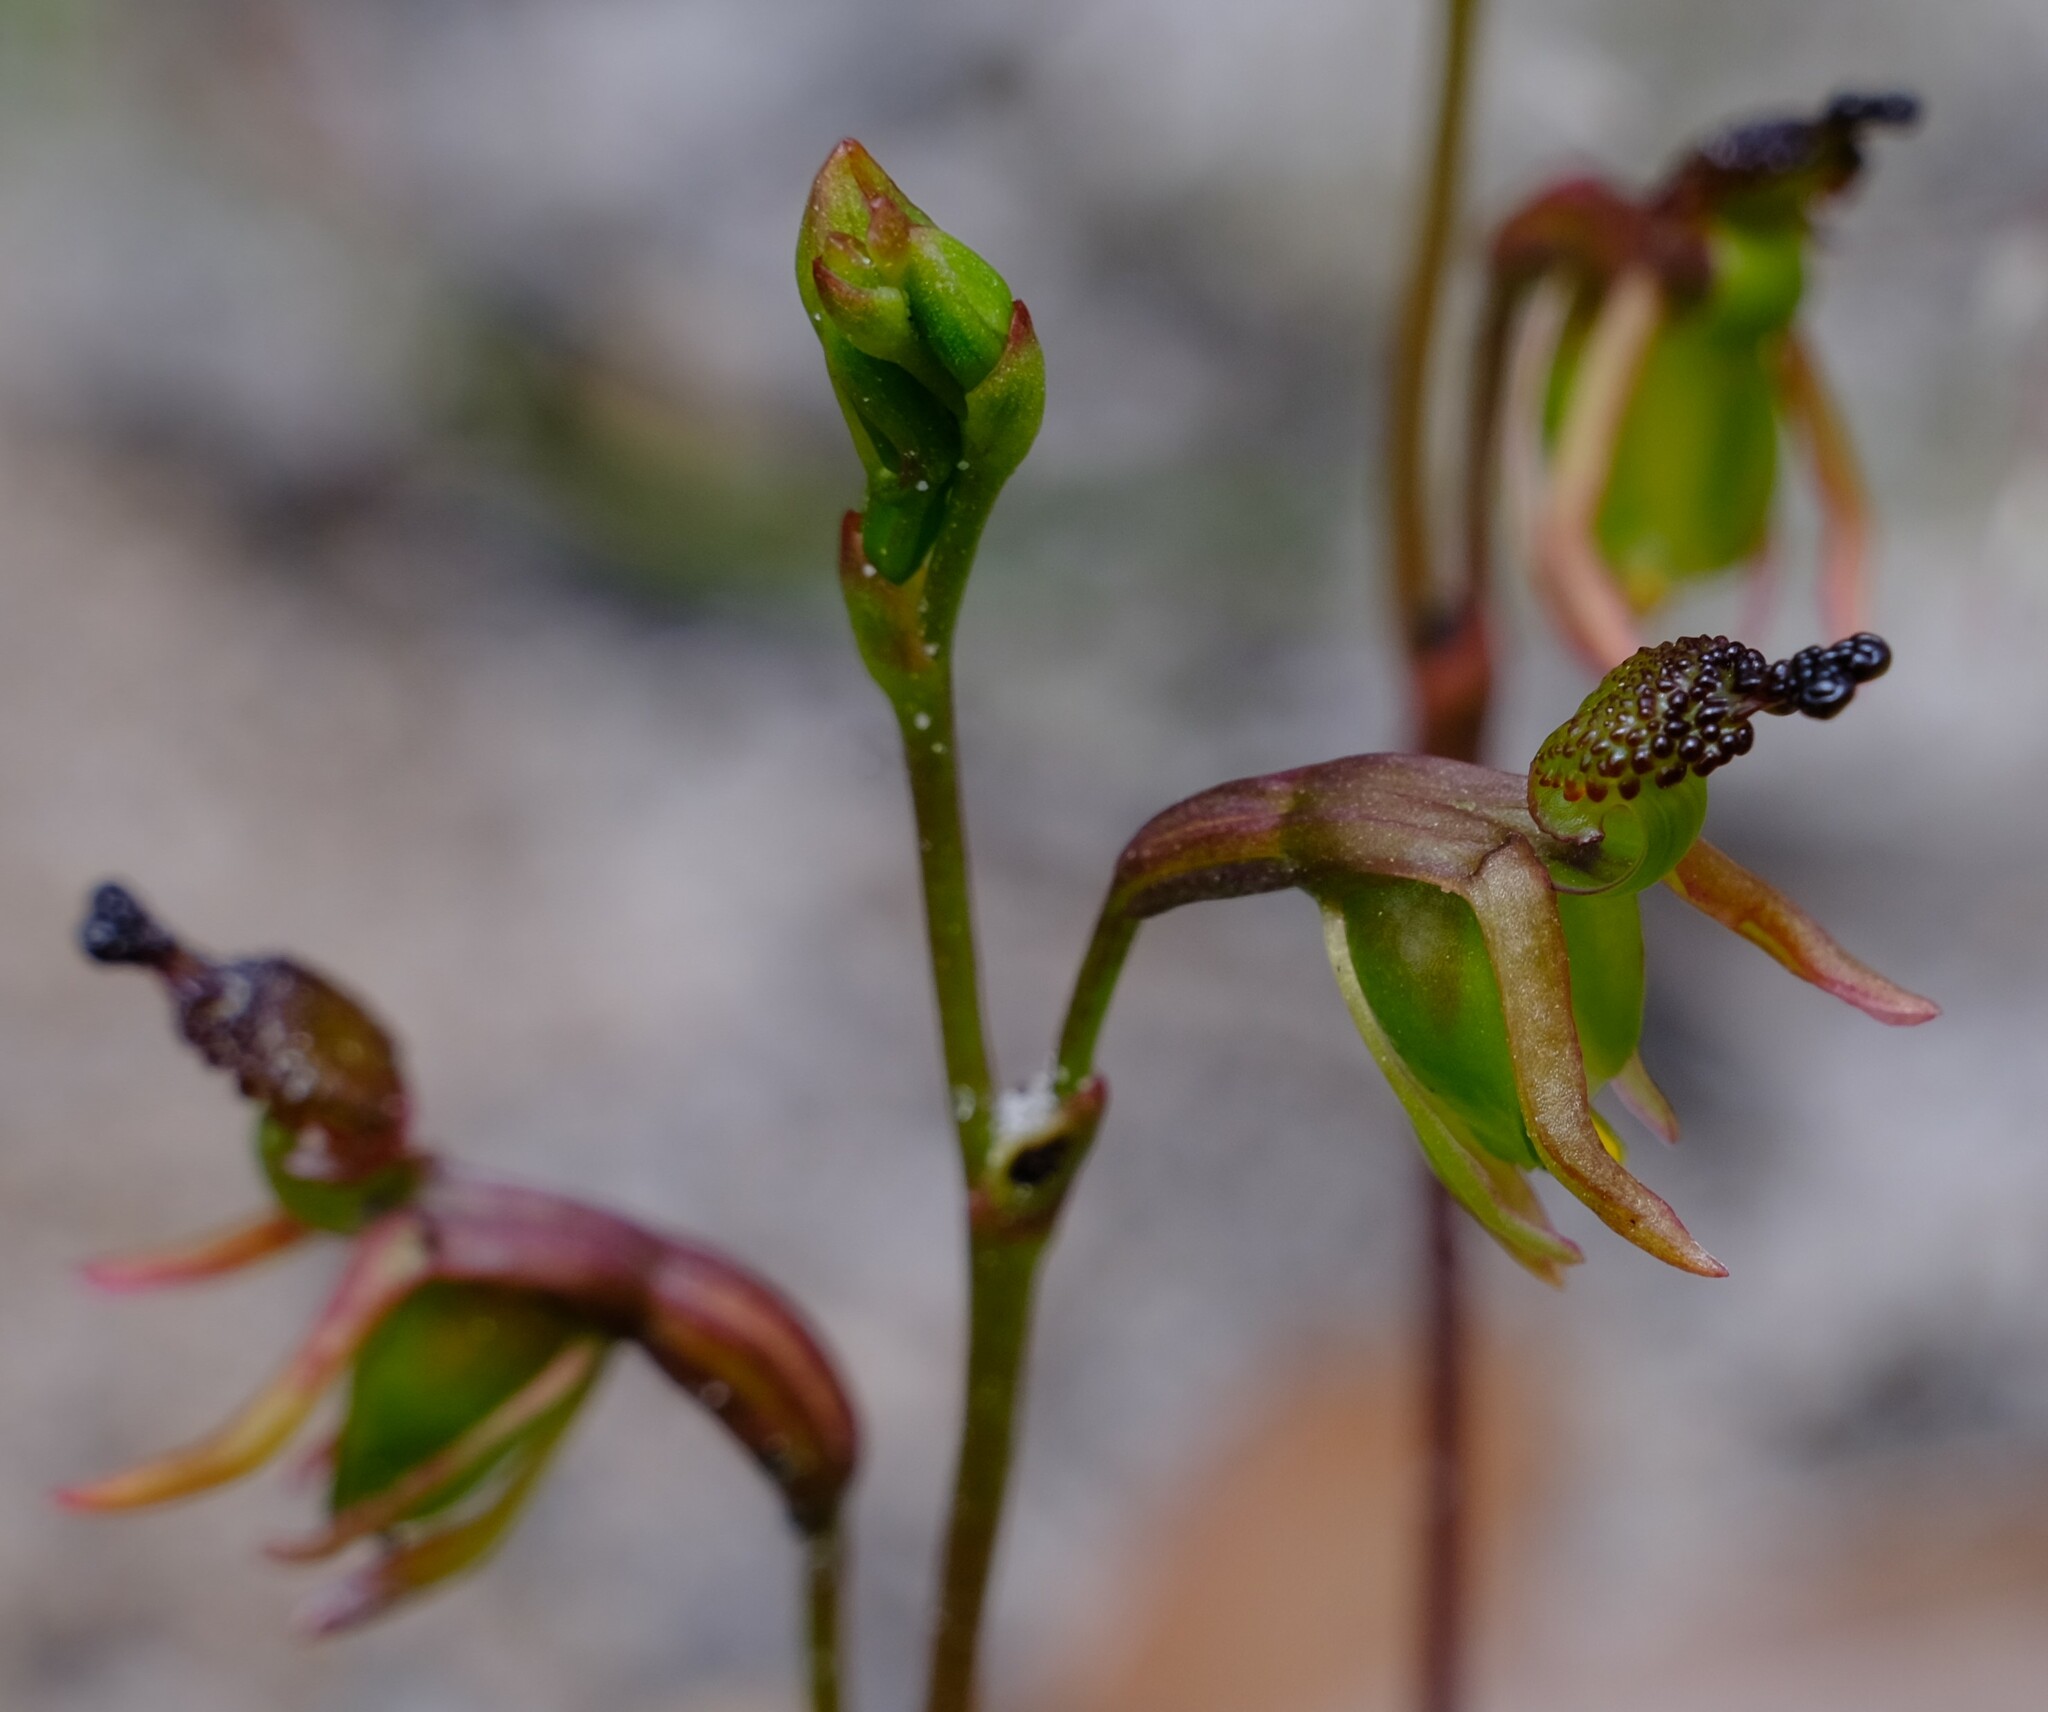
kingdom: Plantae
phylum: Tracheophyta
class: Liliopsida
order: Asparagales
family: Orchidaceae
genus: Caleana
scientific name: Caleana minor
